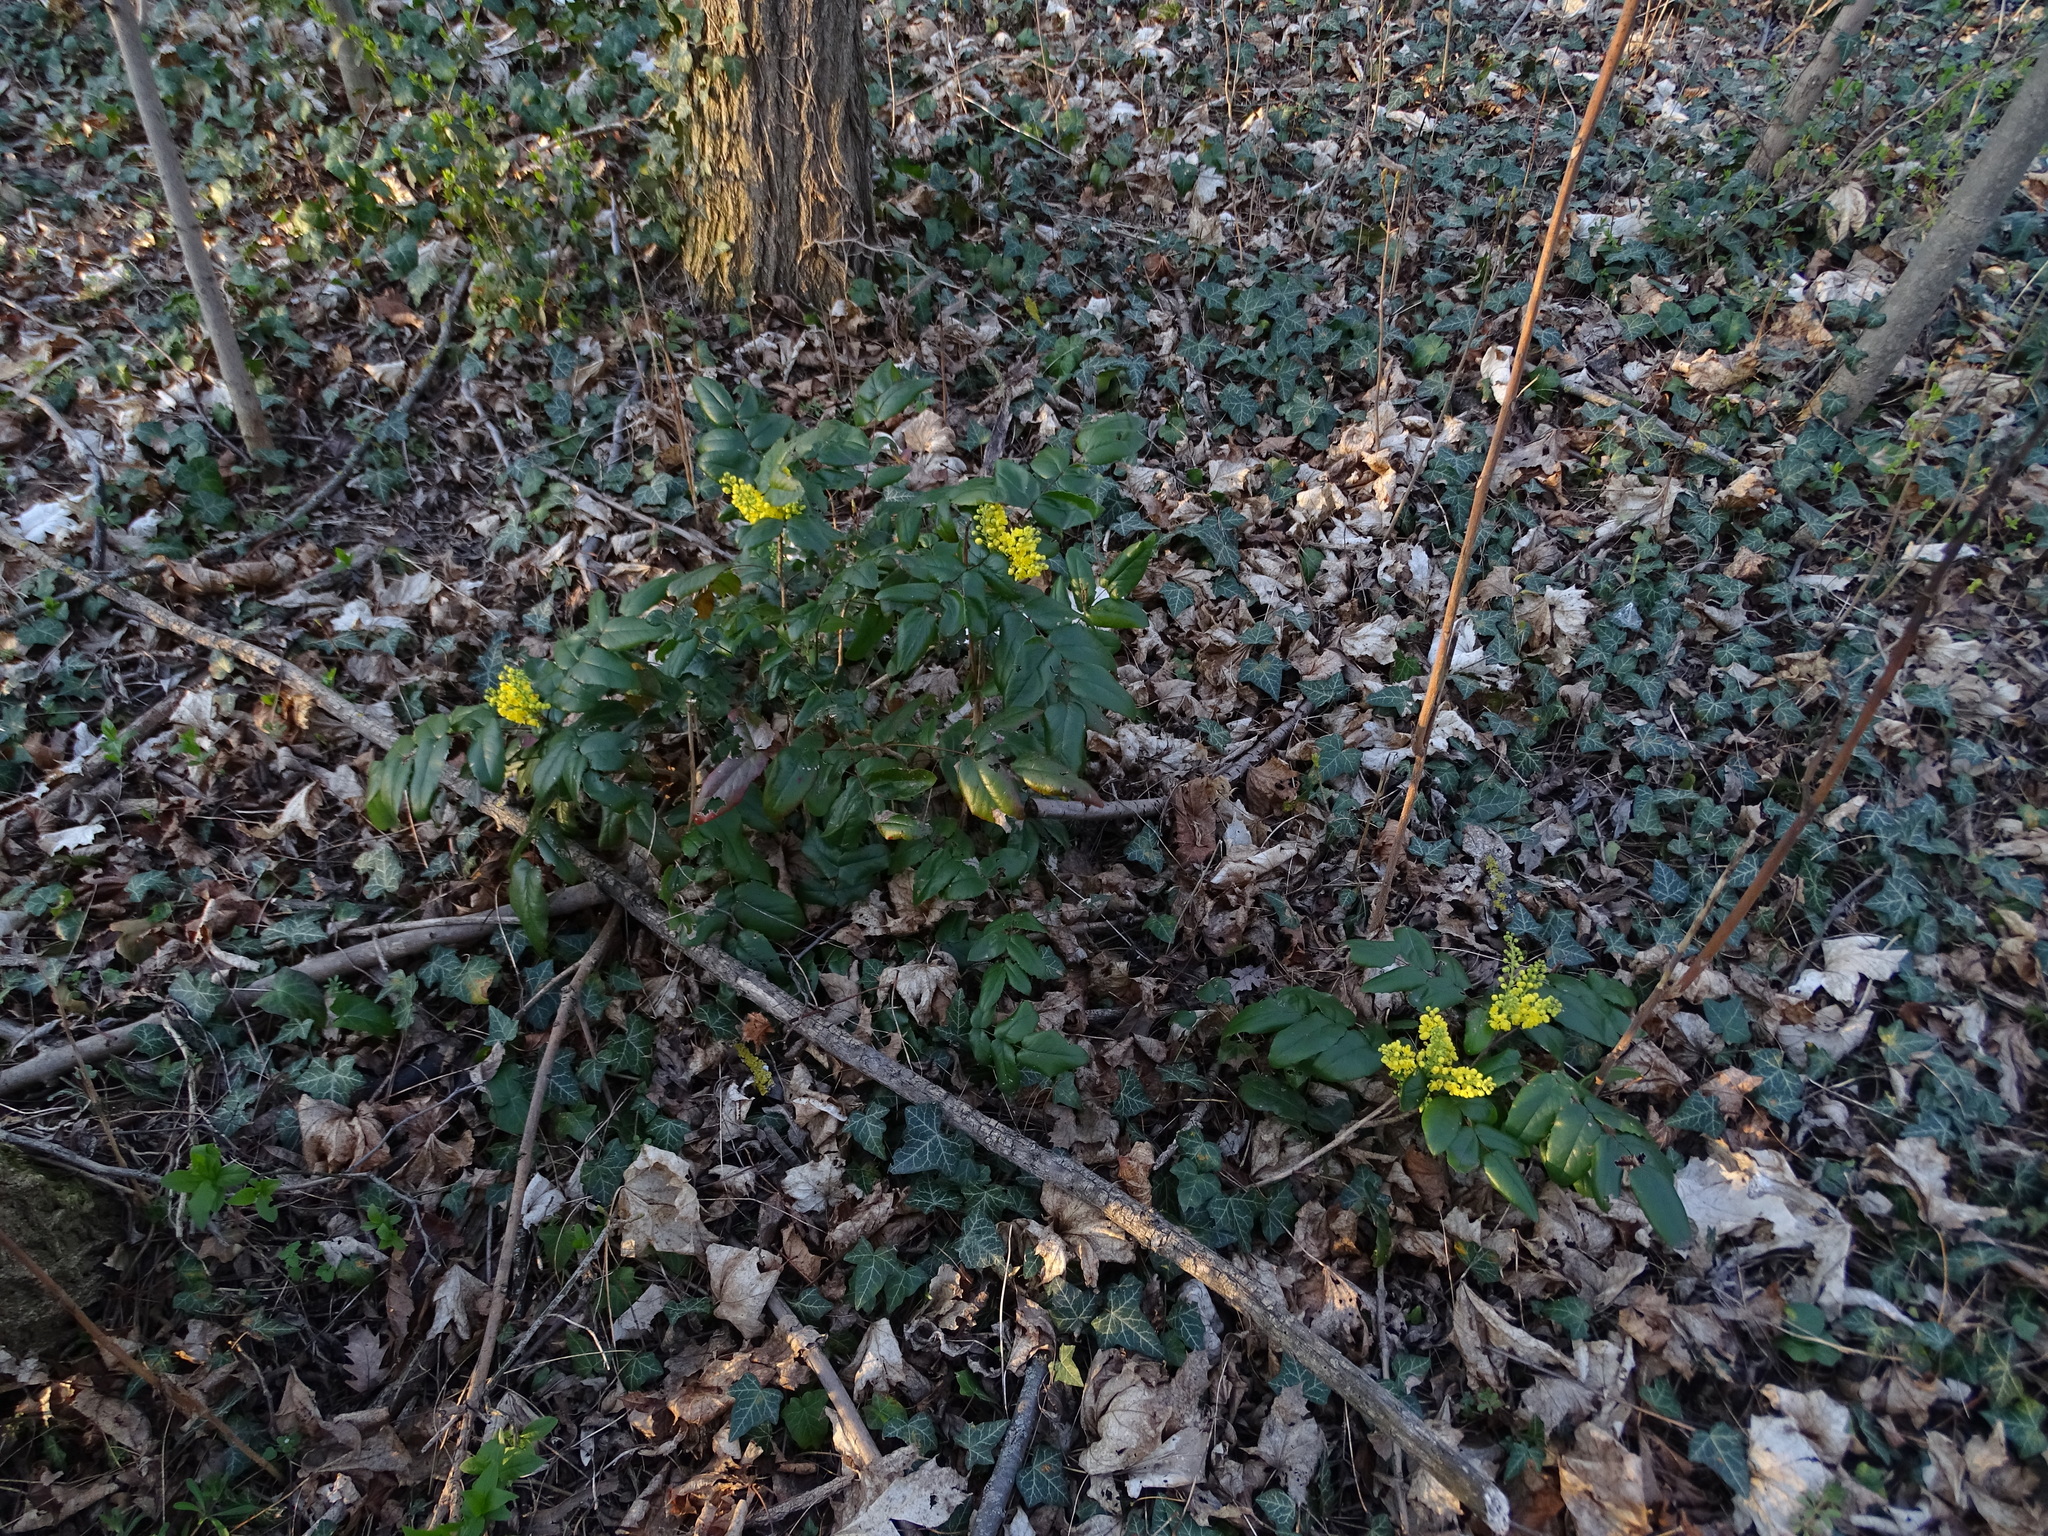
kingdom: Plantae
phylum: Tracheophyta
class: Magnoliopsida
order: Ranunculales
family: Berberidaceae
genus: Mahonia
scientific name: Mahonia aquifolium
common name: Oregon-grape
